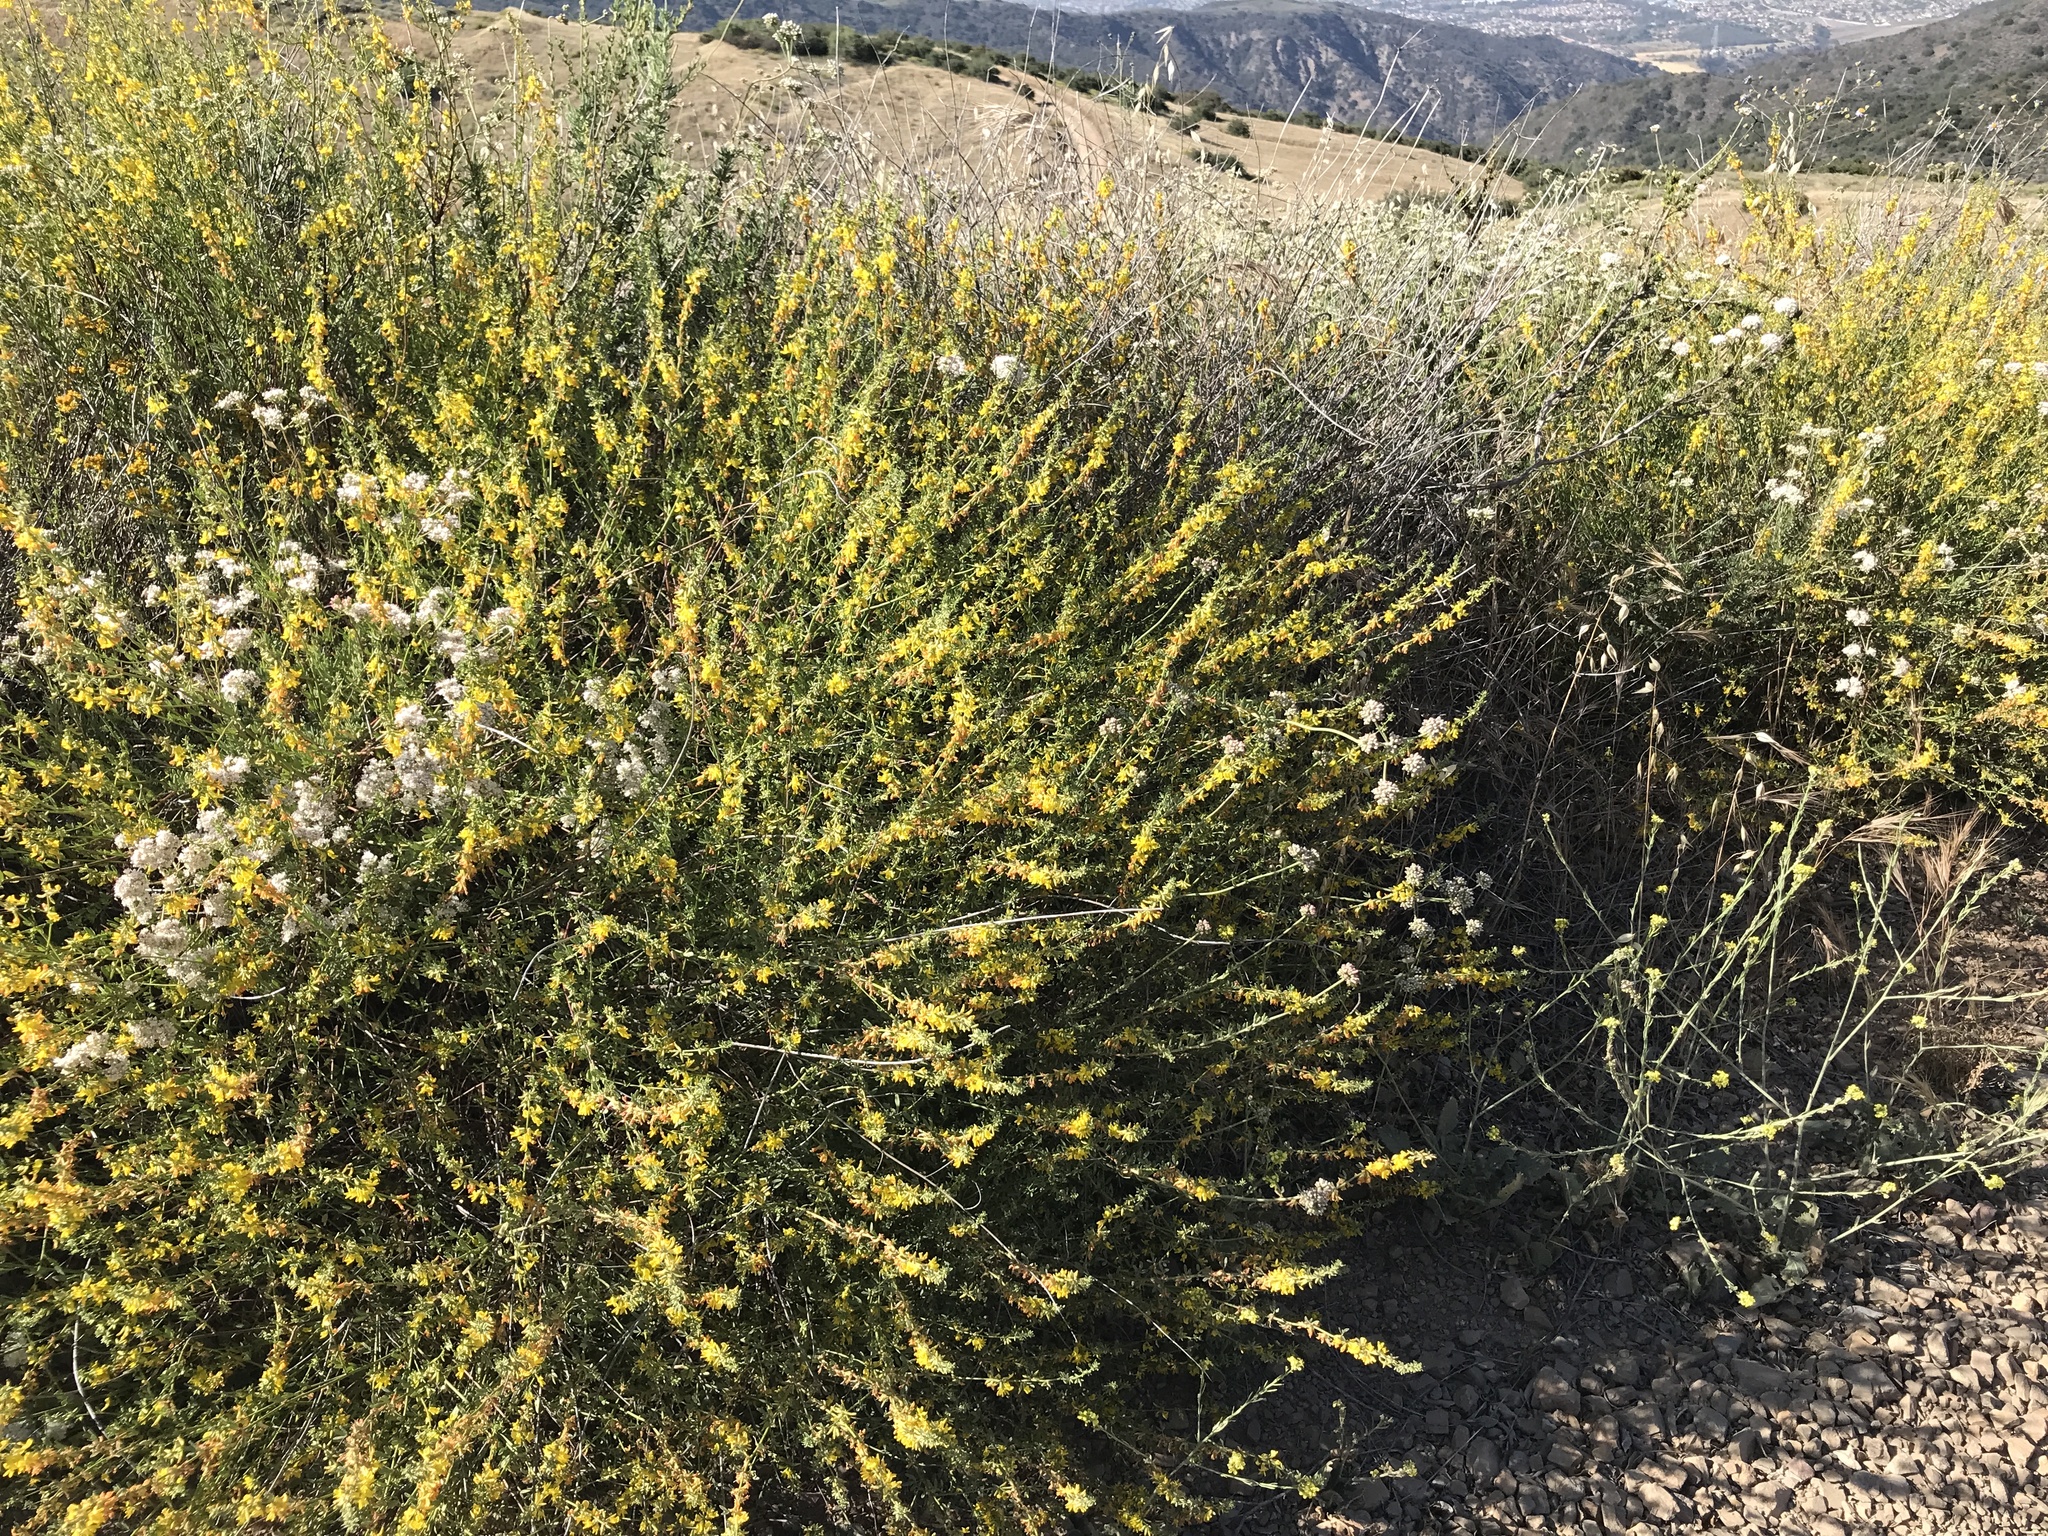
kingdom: Plantae
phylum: Tracheophyta
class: Magnoliopsida
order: Fabales
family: Fabaceae
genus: Acmispon
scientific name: Acmispon glaber
